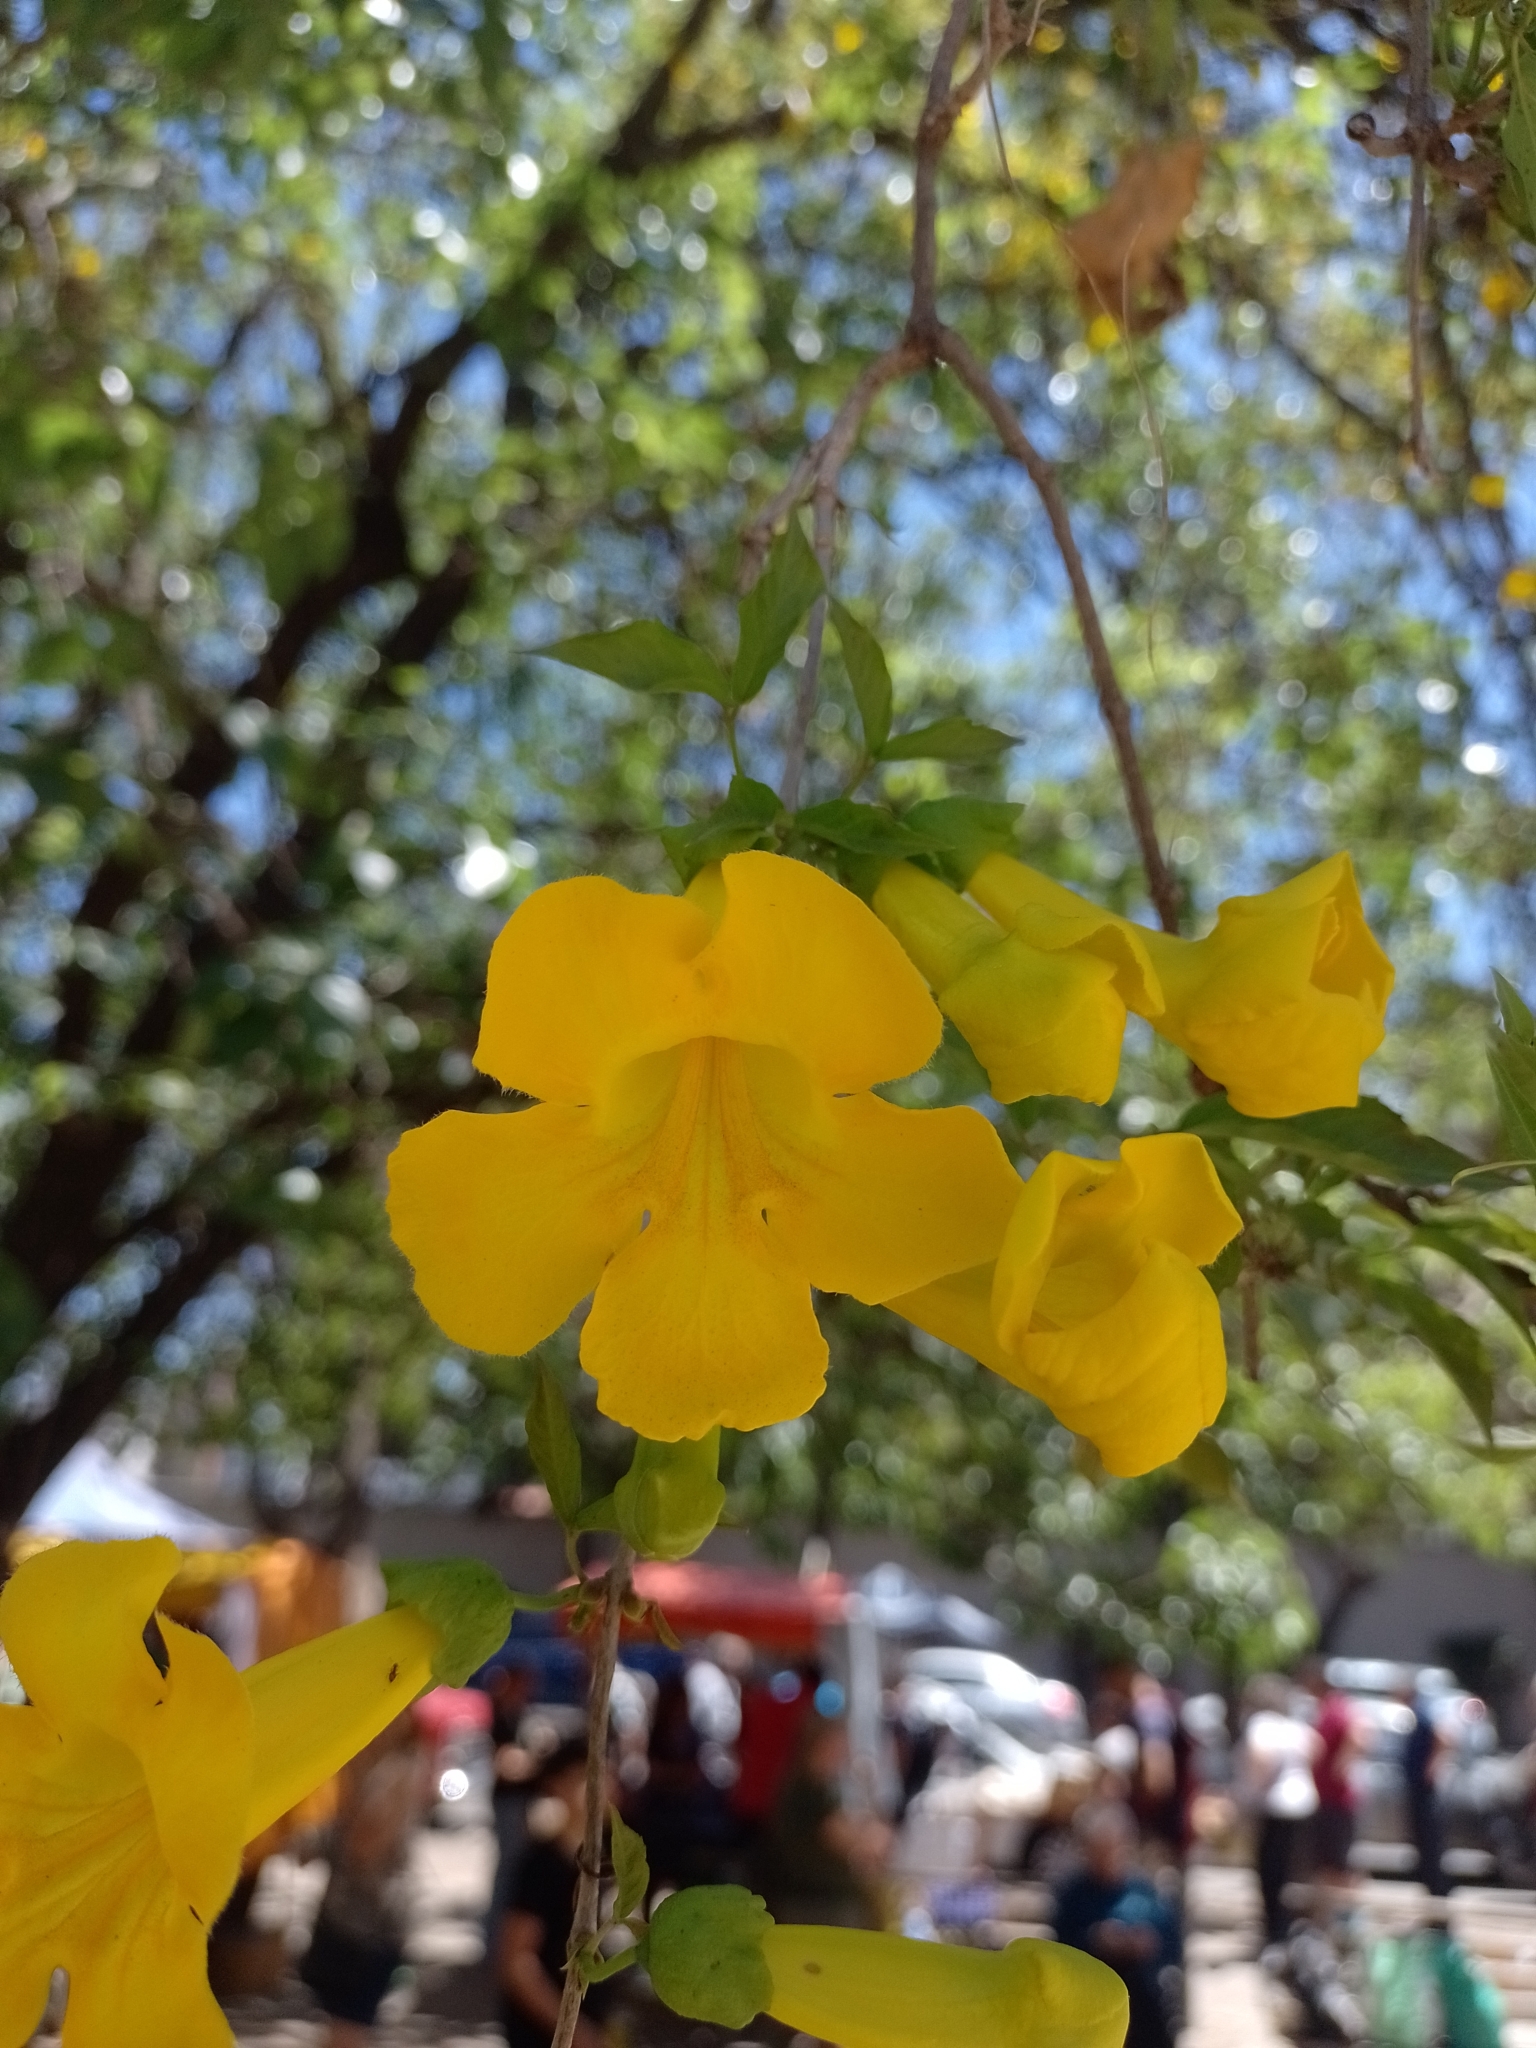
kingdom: Plantae
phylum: Tracheophyta
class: Magnoliopsida
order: Lamiales
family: Bignoniaceae
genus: Dolichandra
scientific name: Dolichandra unguis-cati
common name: Catclaw vine
